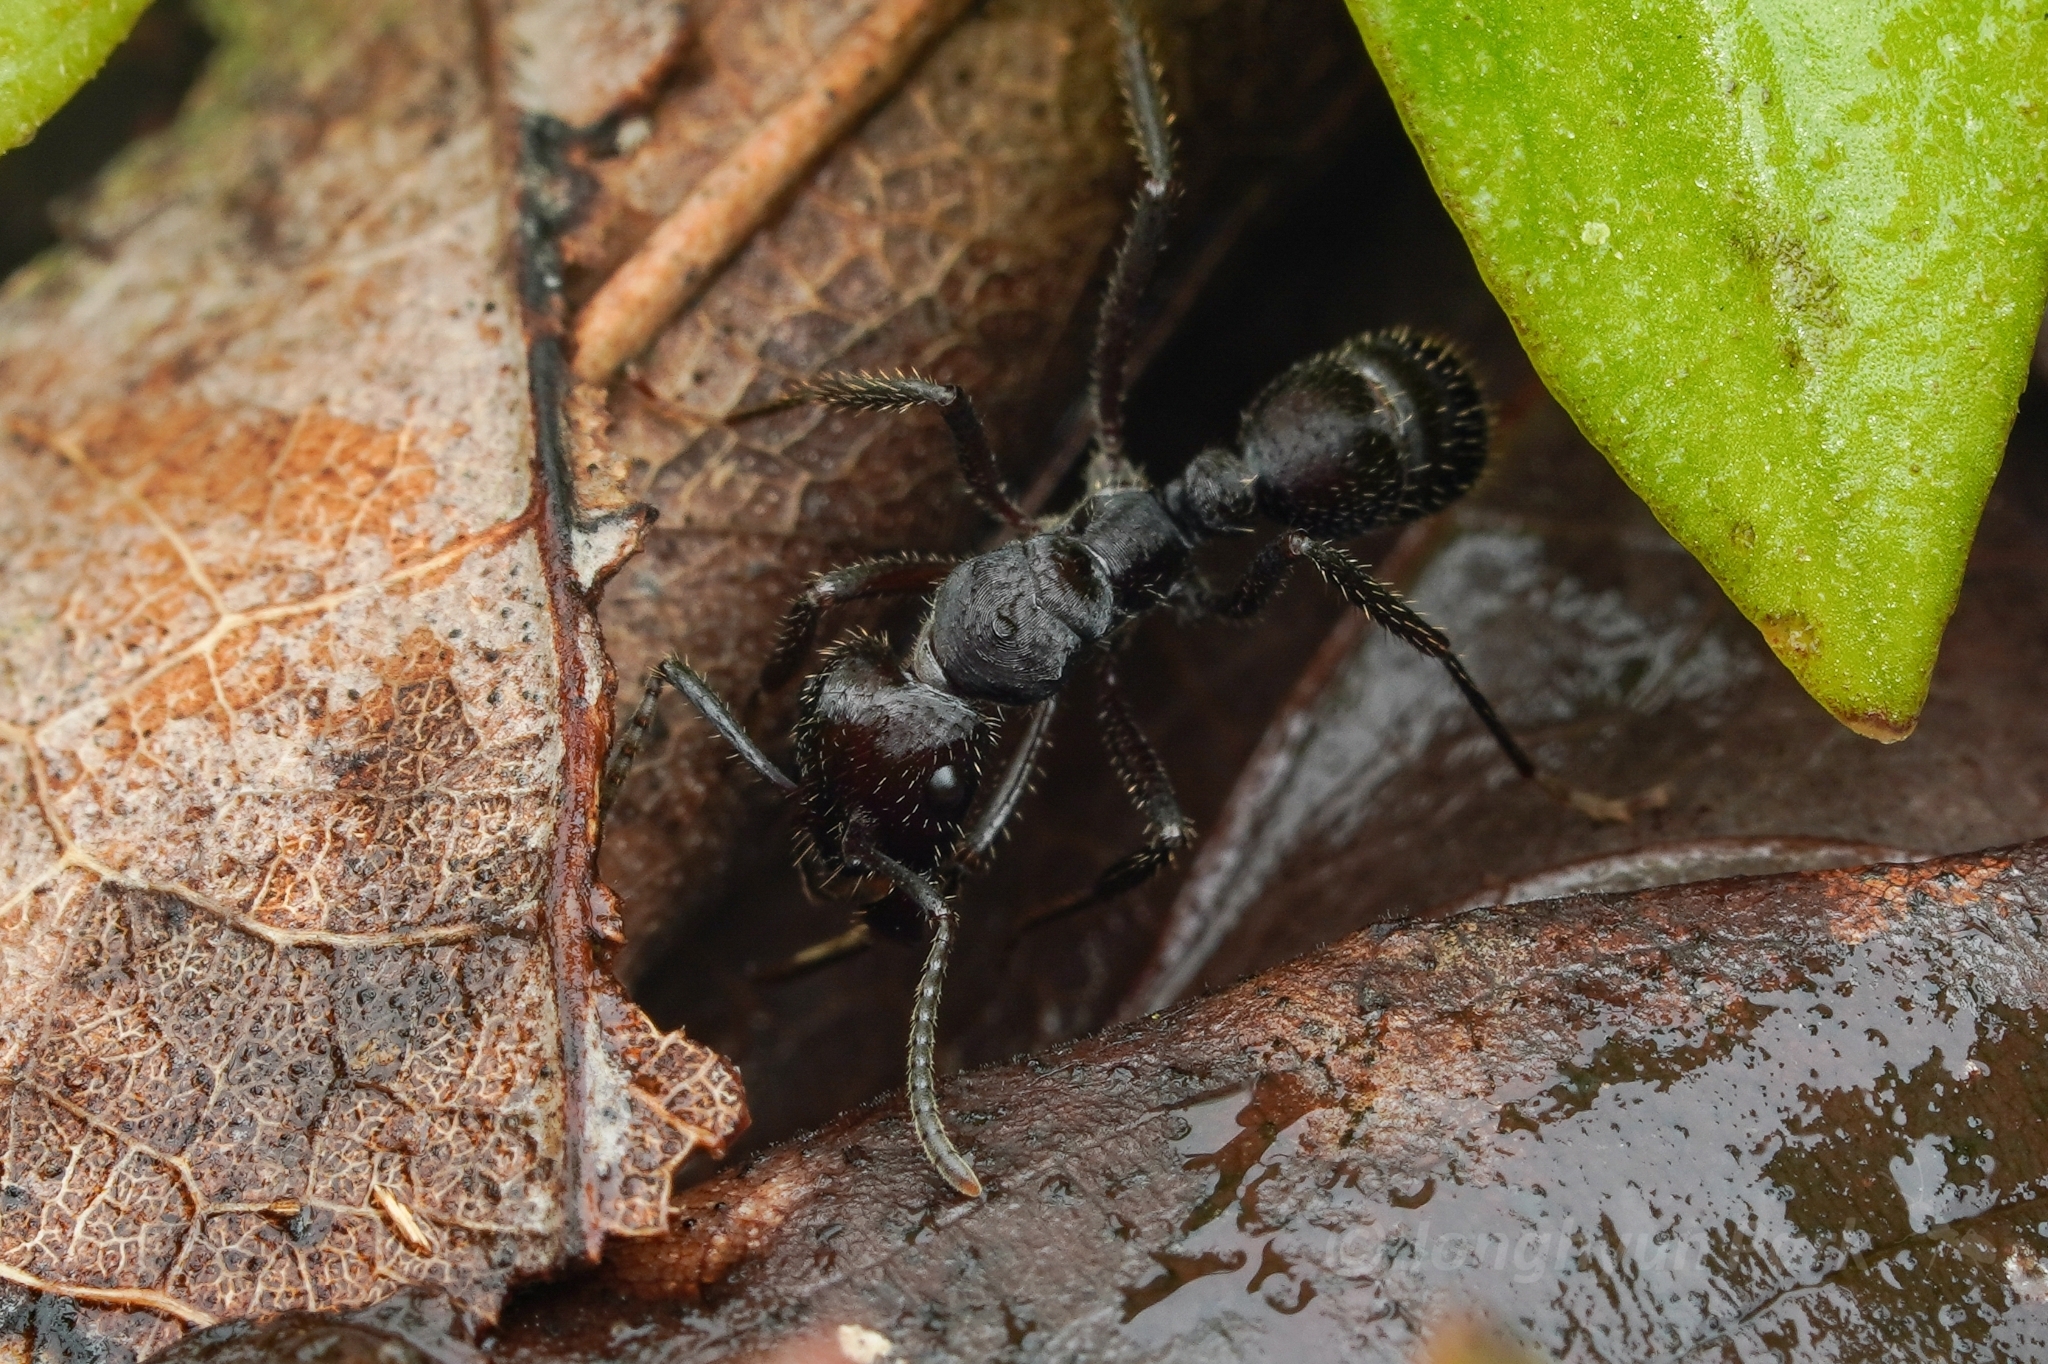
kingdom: Animalia
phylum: Arthropoda
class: Insecta
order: Hymenoptera
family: Formicidae
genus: Ectatomma
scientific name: Ectatomma brunneum
